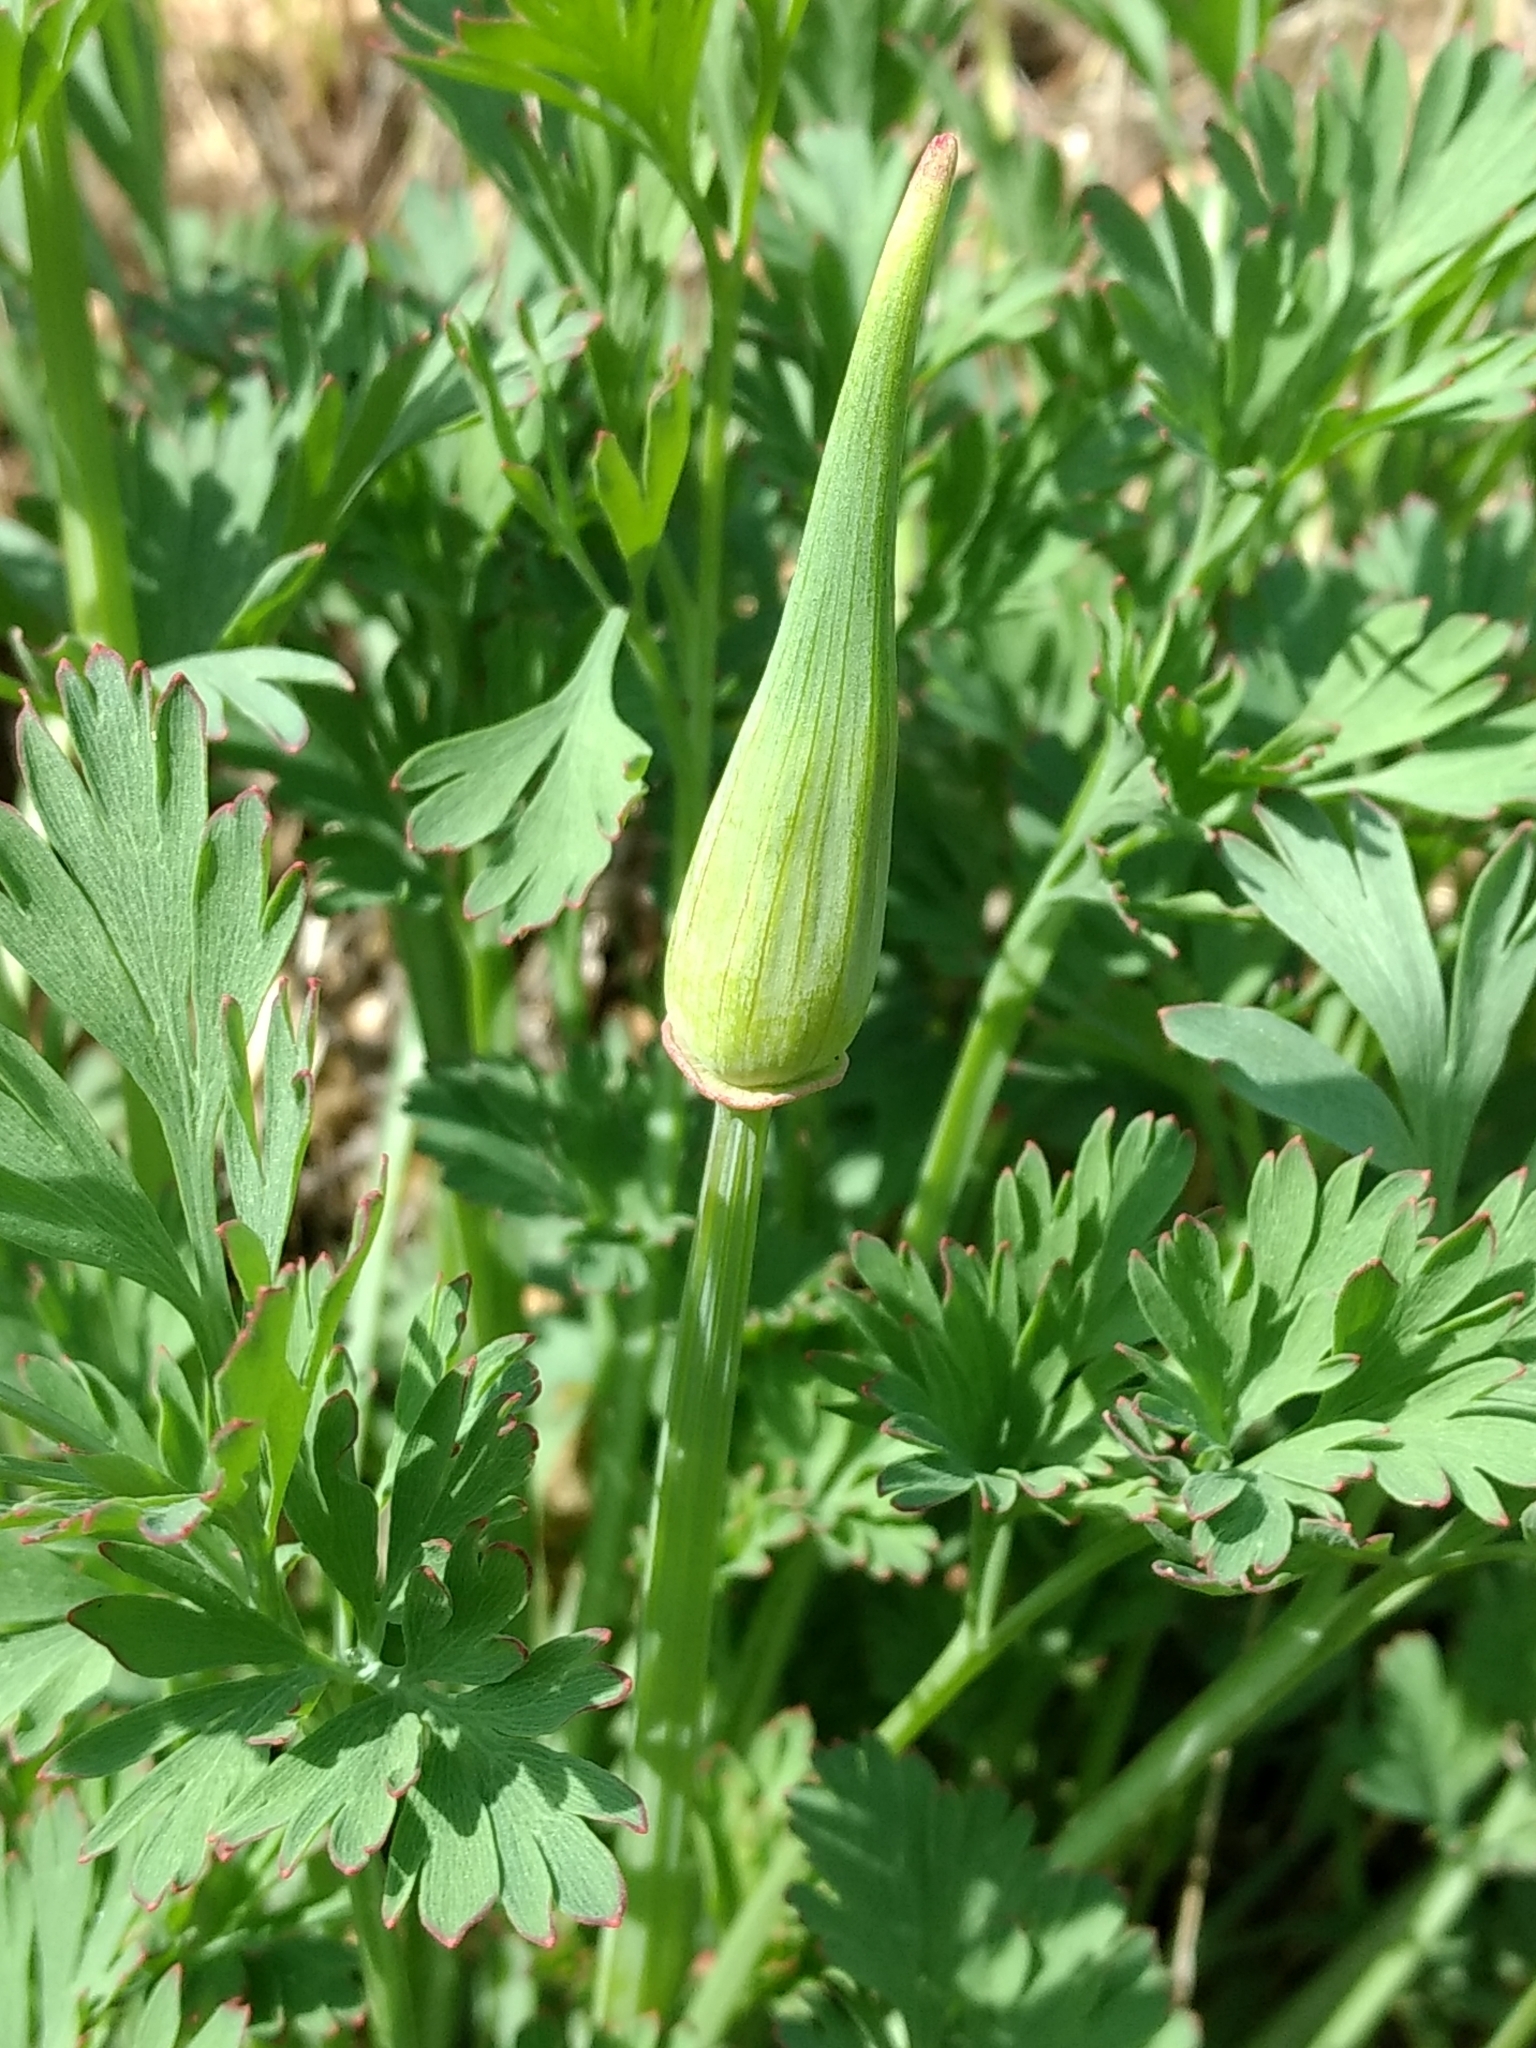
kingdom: Plantae
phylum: Tracheophyta
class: Magnoliopsida
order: Ranunculales
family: Papaveraceae
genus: Eschscholzia
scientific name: Eschscholzia californica
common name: California poppy
